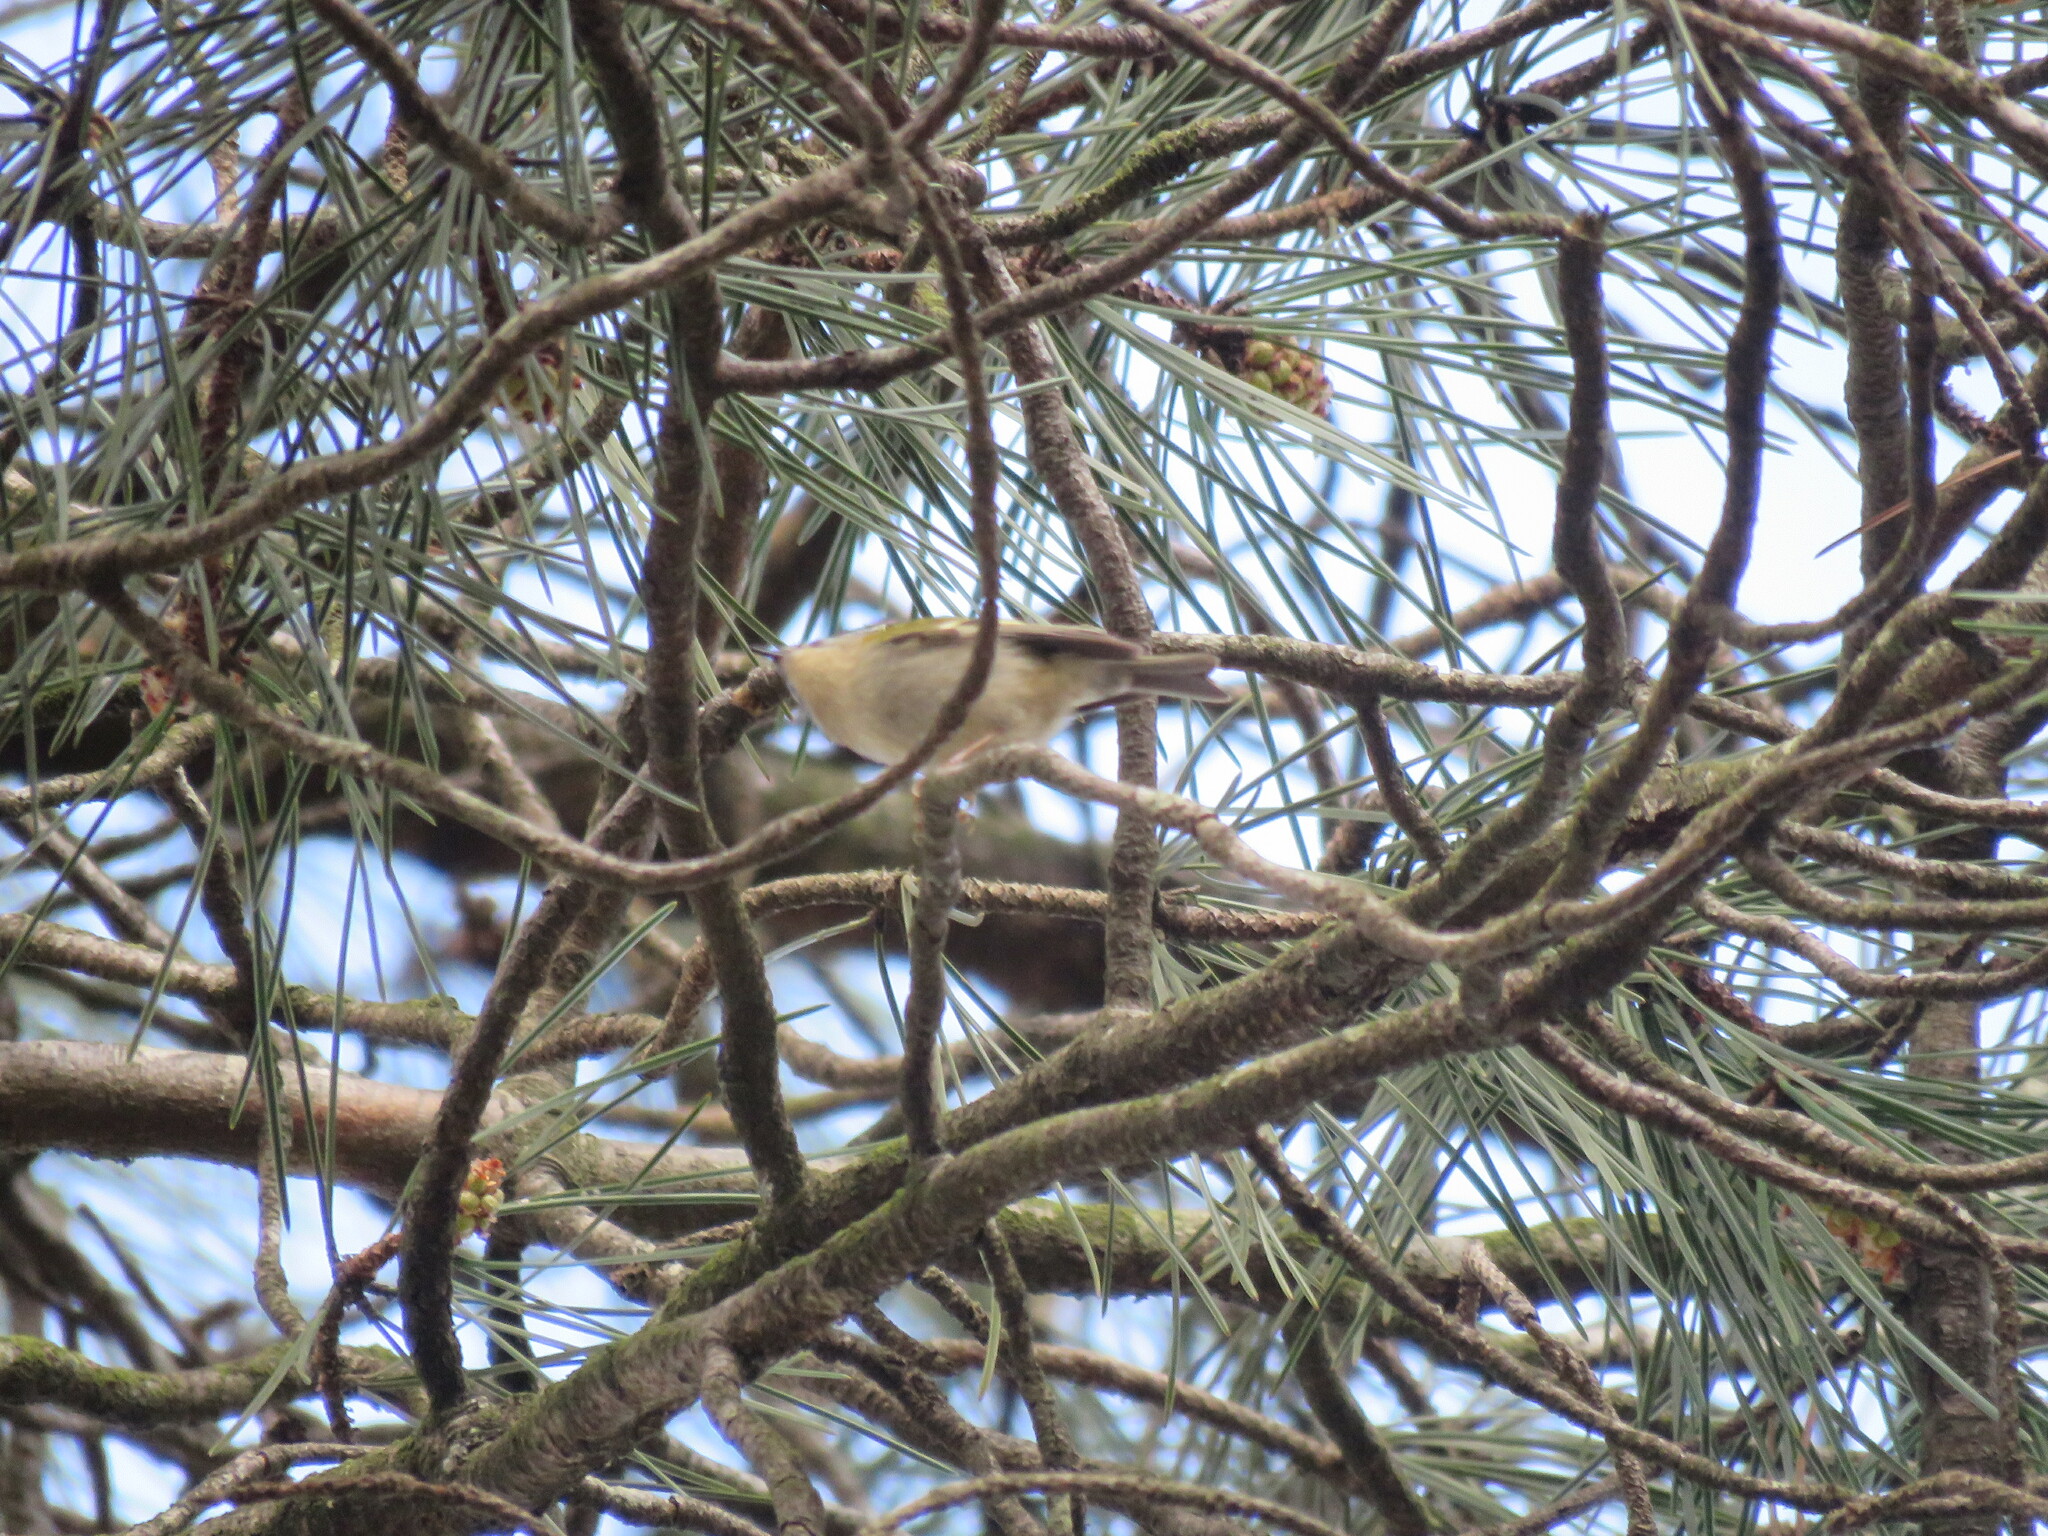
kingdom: Animalia
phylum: Chordata
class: Aves
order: Passeriformes
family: Regulidae
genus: Regulus
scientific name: Regulus ignicapilla
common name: Firecrest
